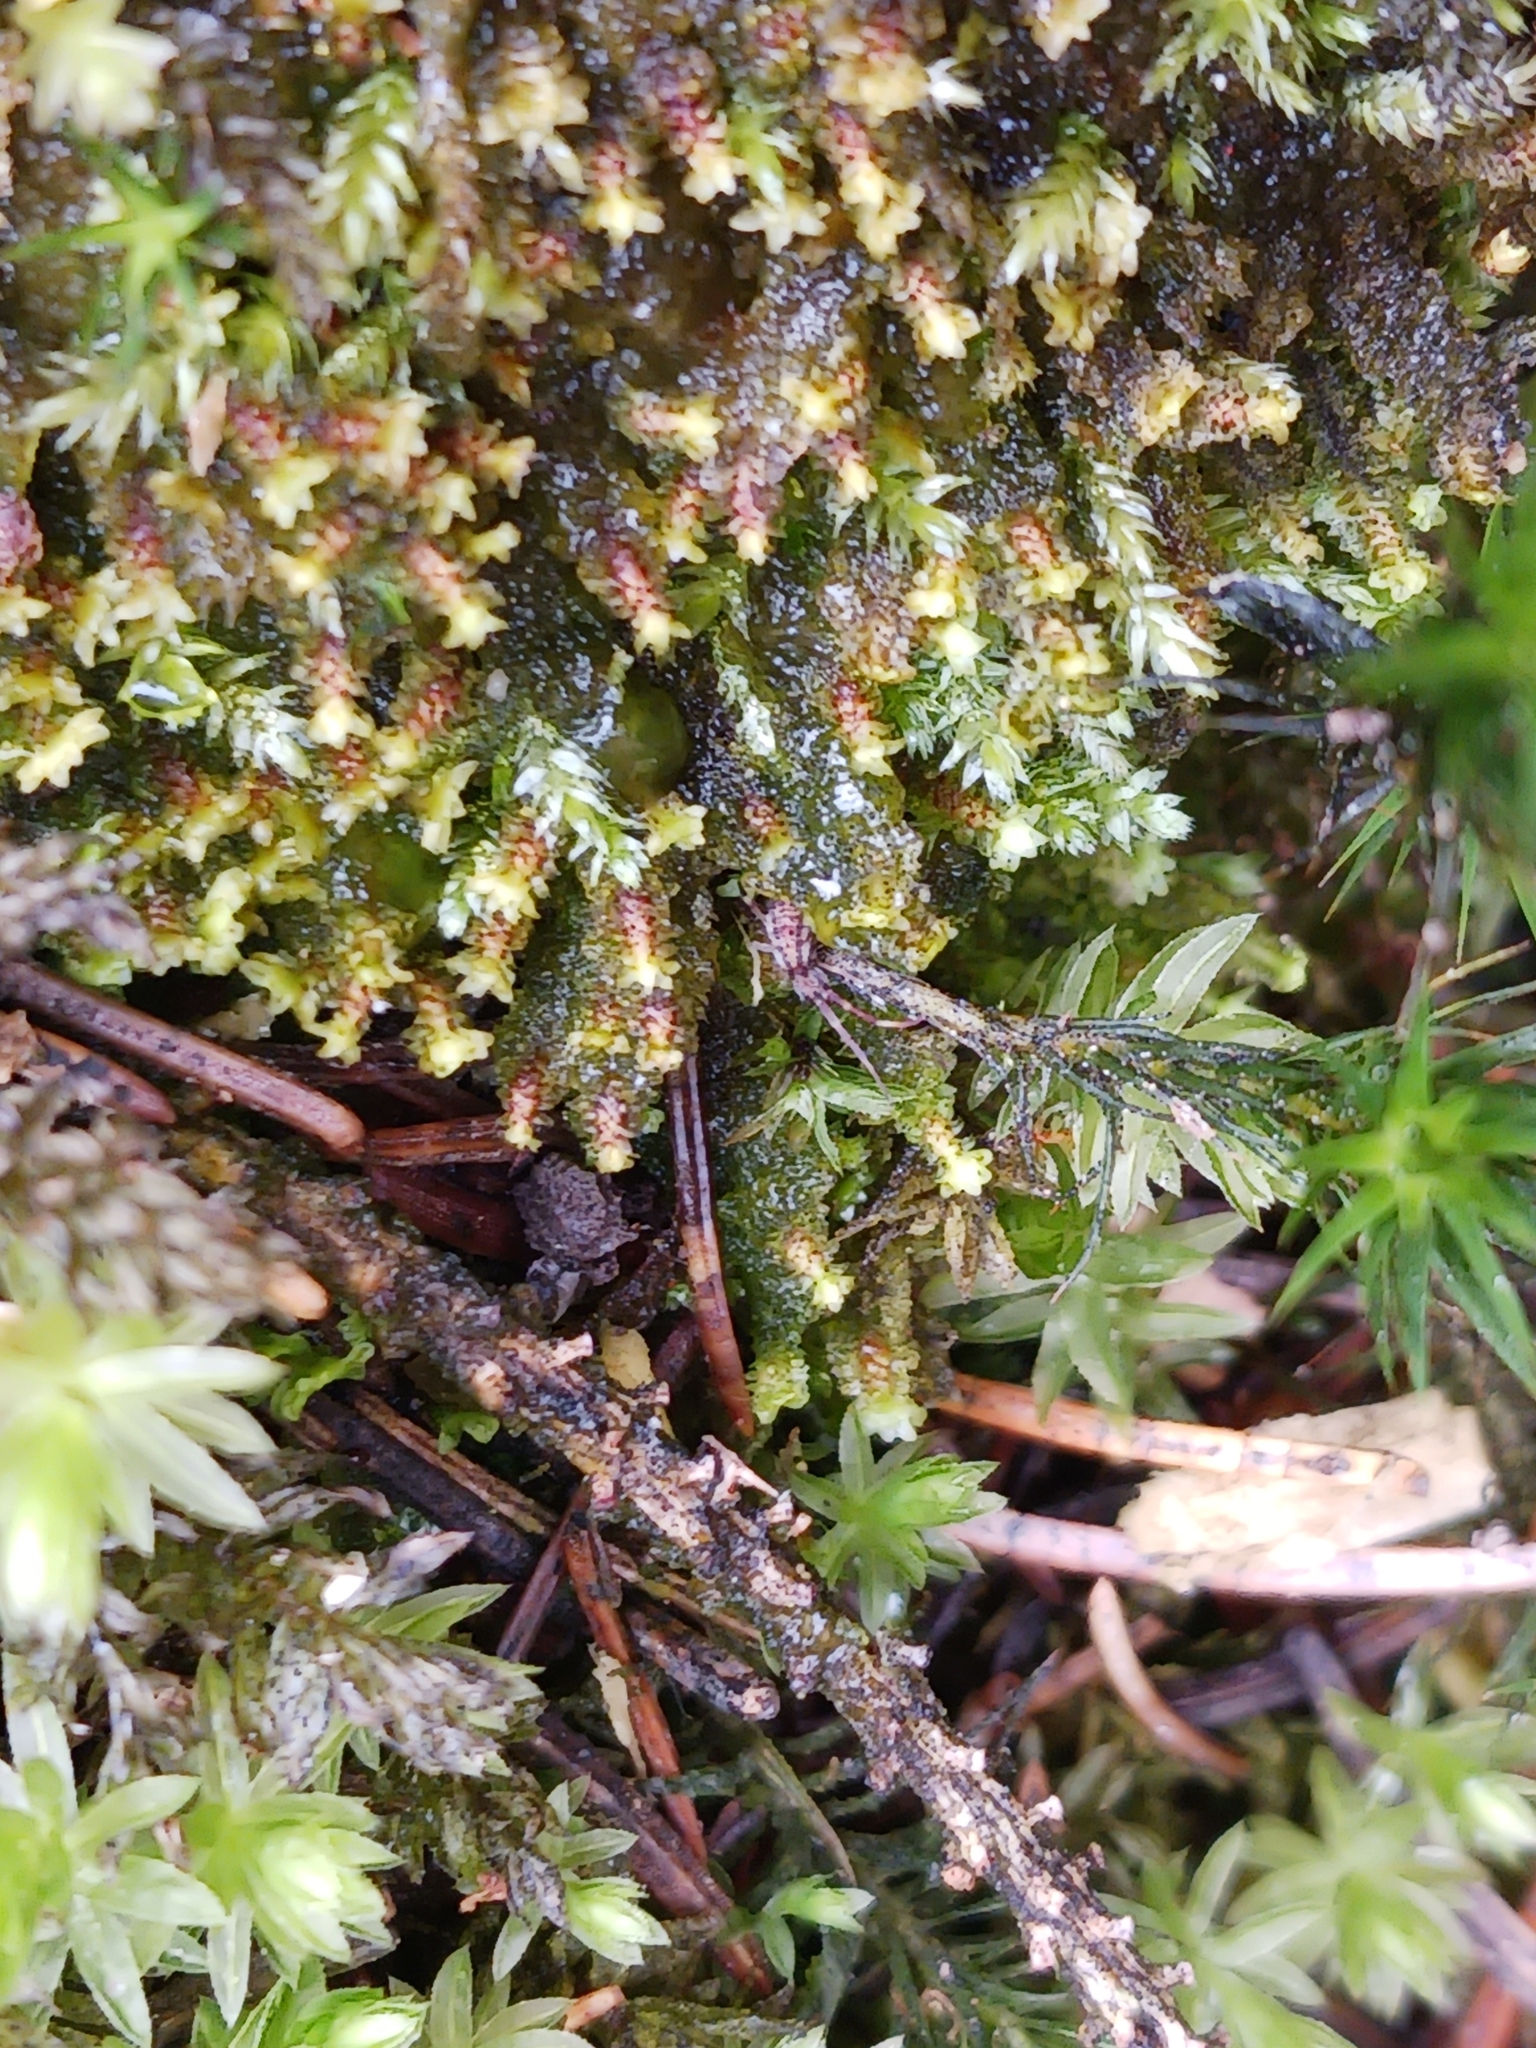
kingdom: Plantae
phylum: Marchantiophyta
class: Jungermanniopsida
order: Jungermanniales
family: Scapaniaceae
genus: Diplophyllum
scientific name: Diplophyllum albicans
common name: White earwort
